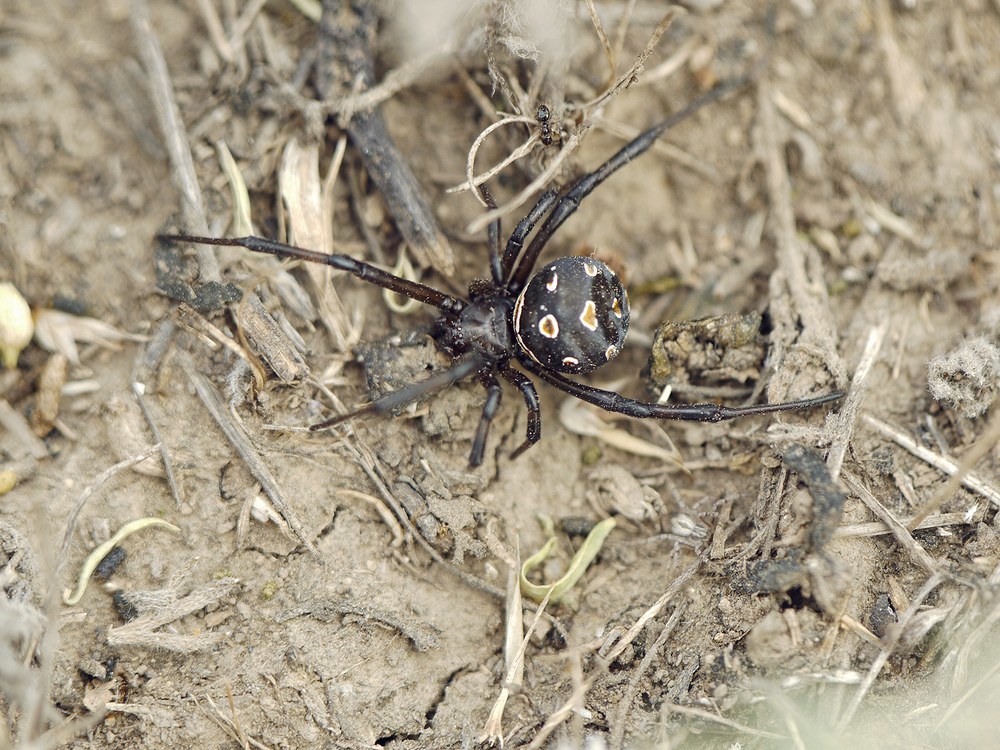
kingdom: Animalia
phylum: Arthropoda
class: Arachnida
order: Araneae
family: Theridiidae
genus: Latrodectus
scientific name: Latrodectus tredecimguttatus
